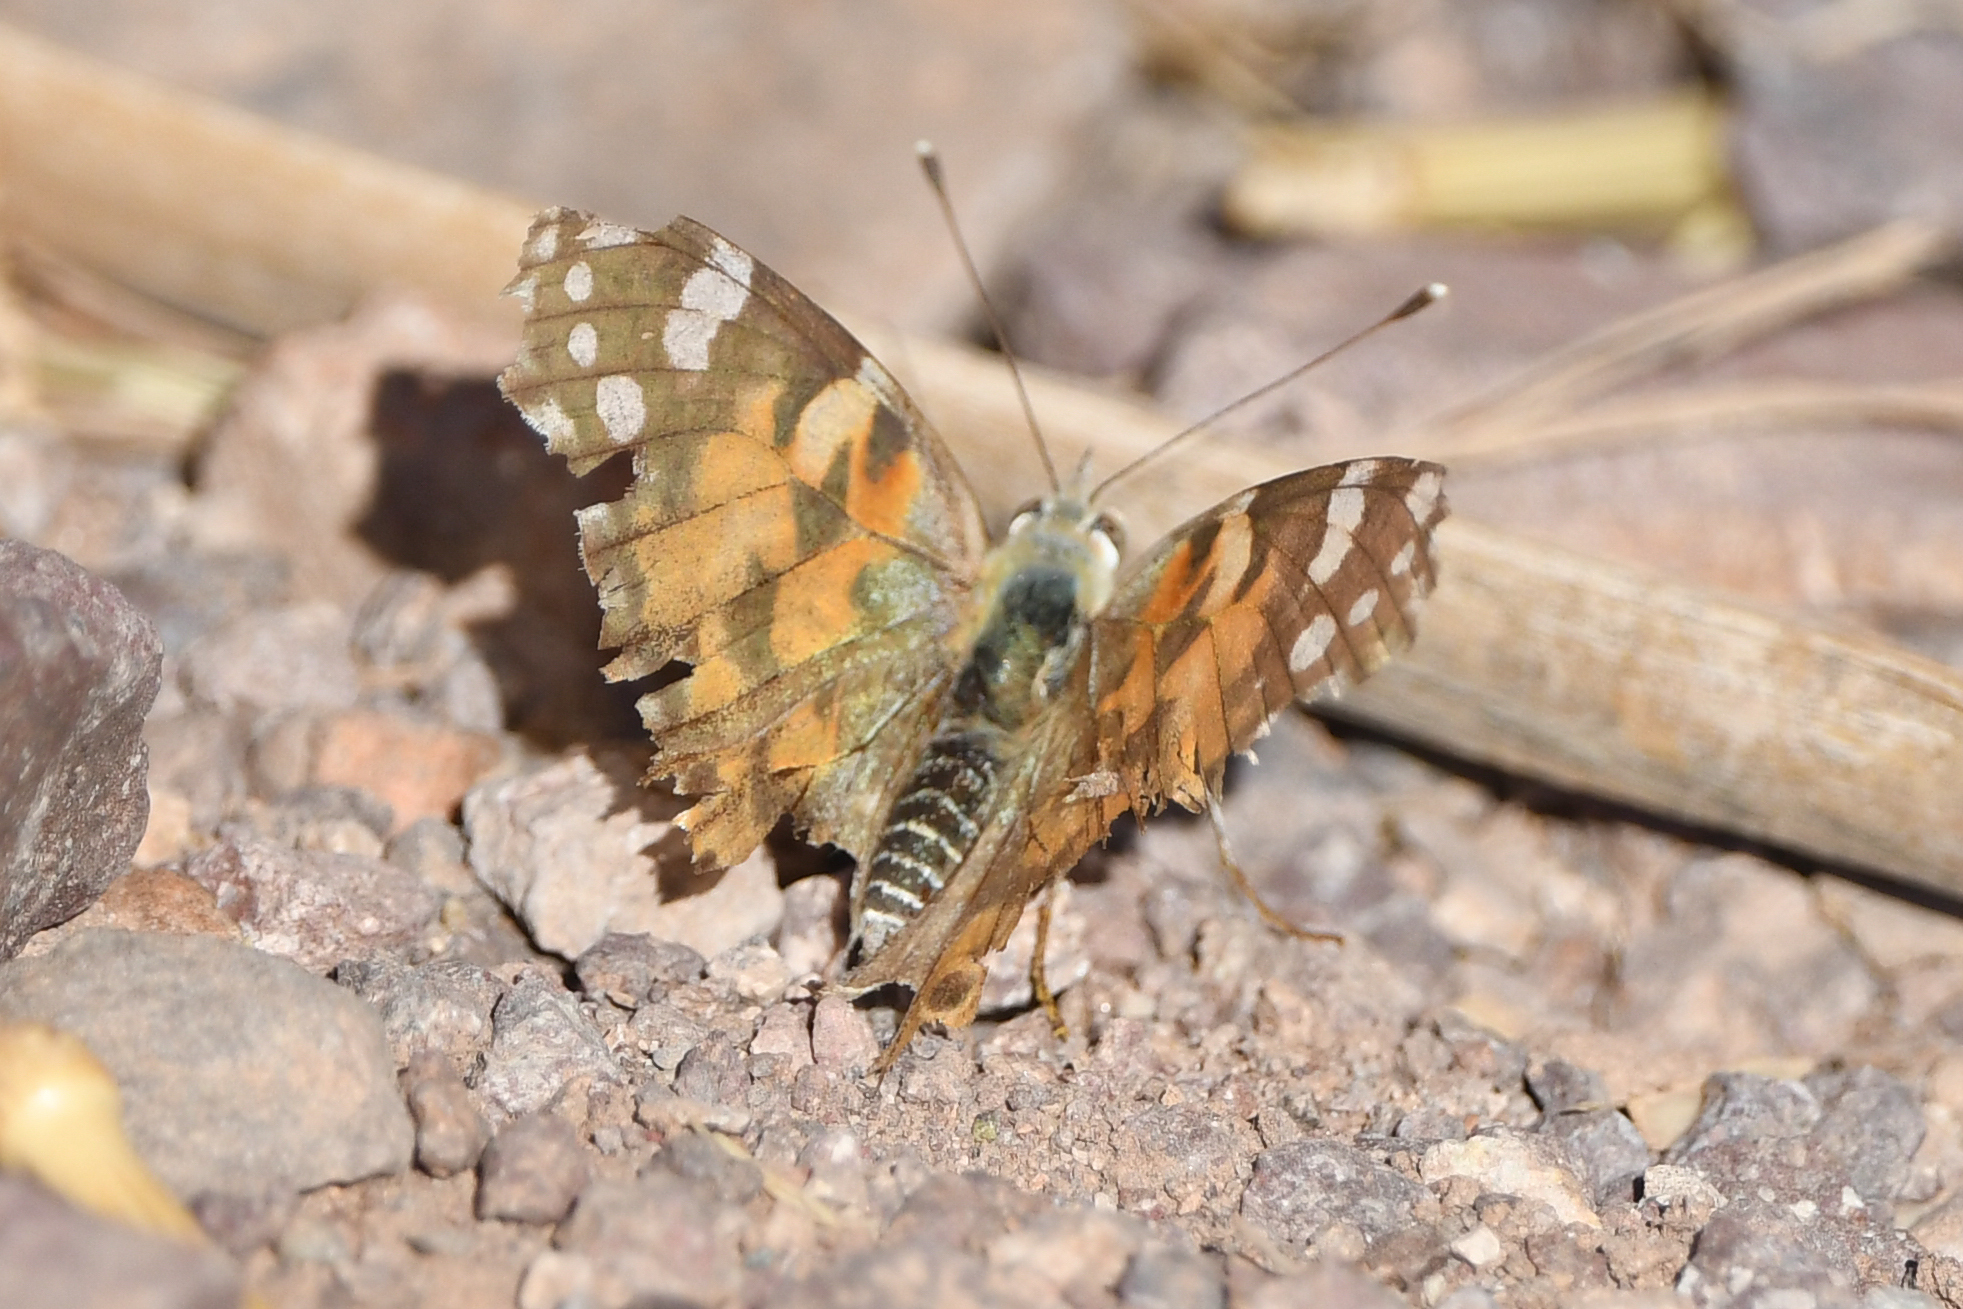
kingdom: Animalia
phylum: Arthropoda
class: Insecta
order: Lepidoptera
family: Nymphalidae
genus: Vanessa
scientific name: Vanessa cardui
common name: Painted lady
